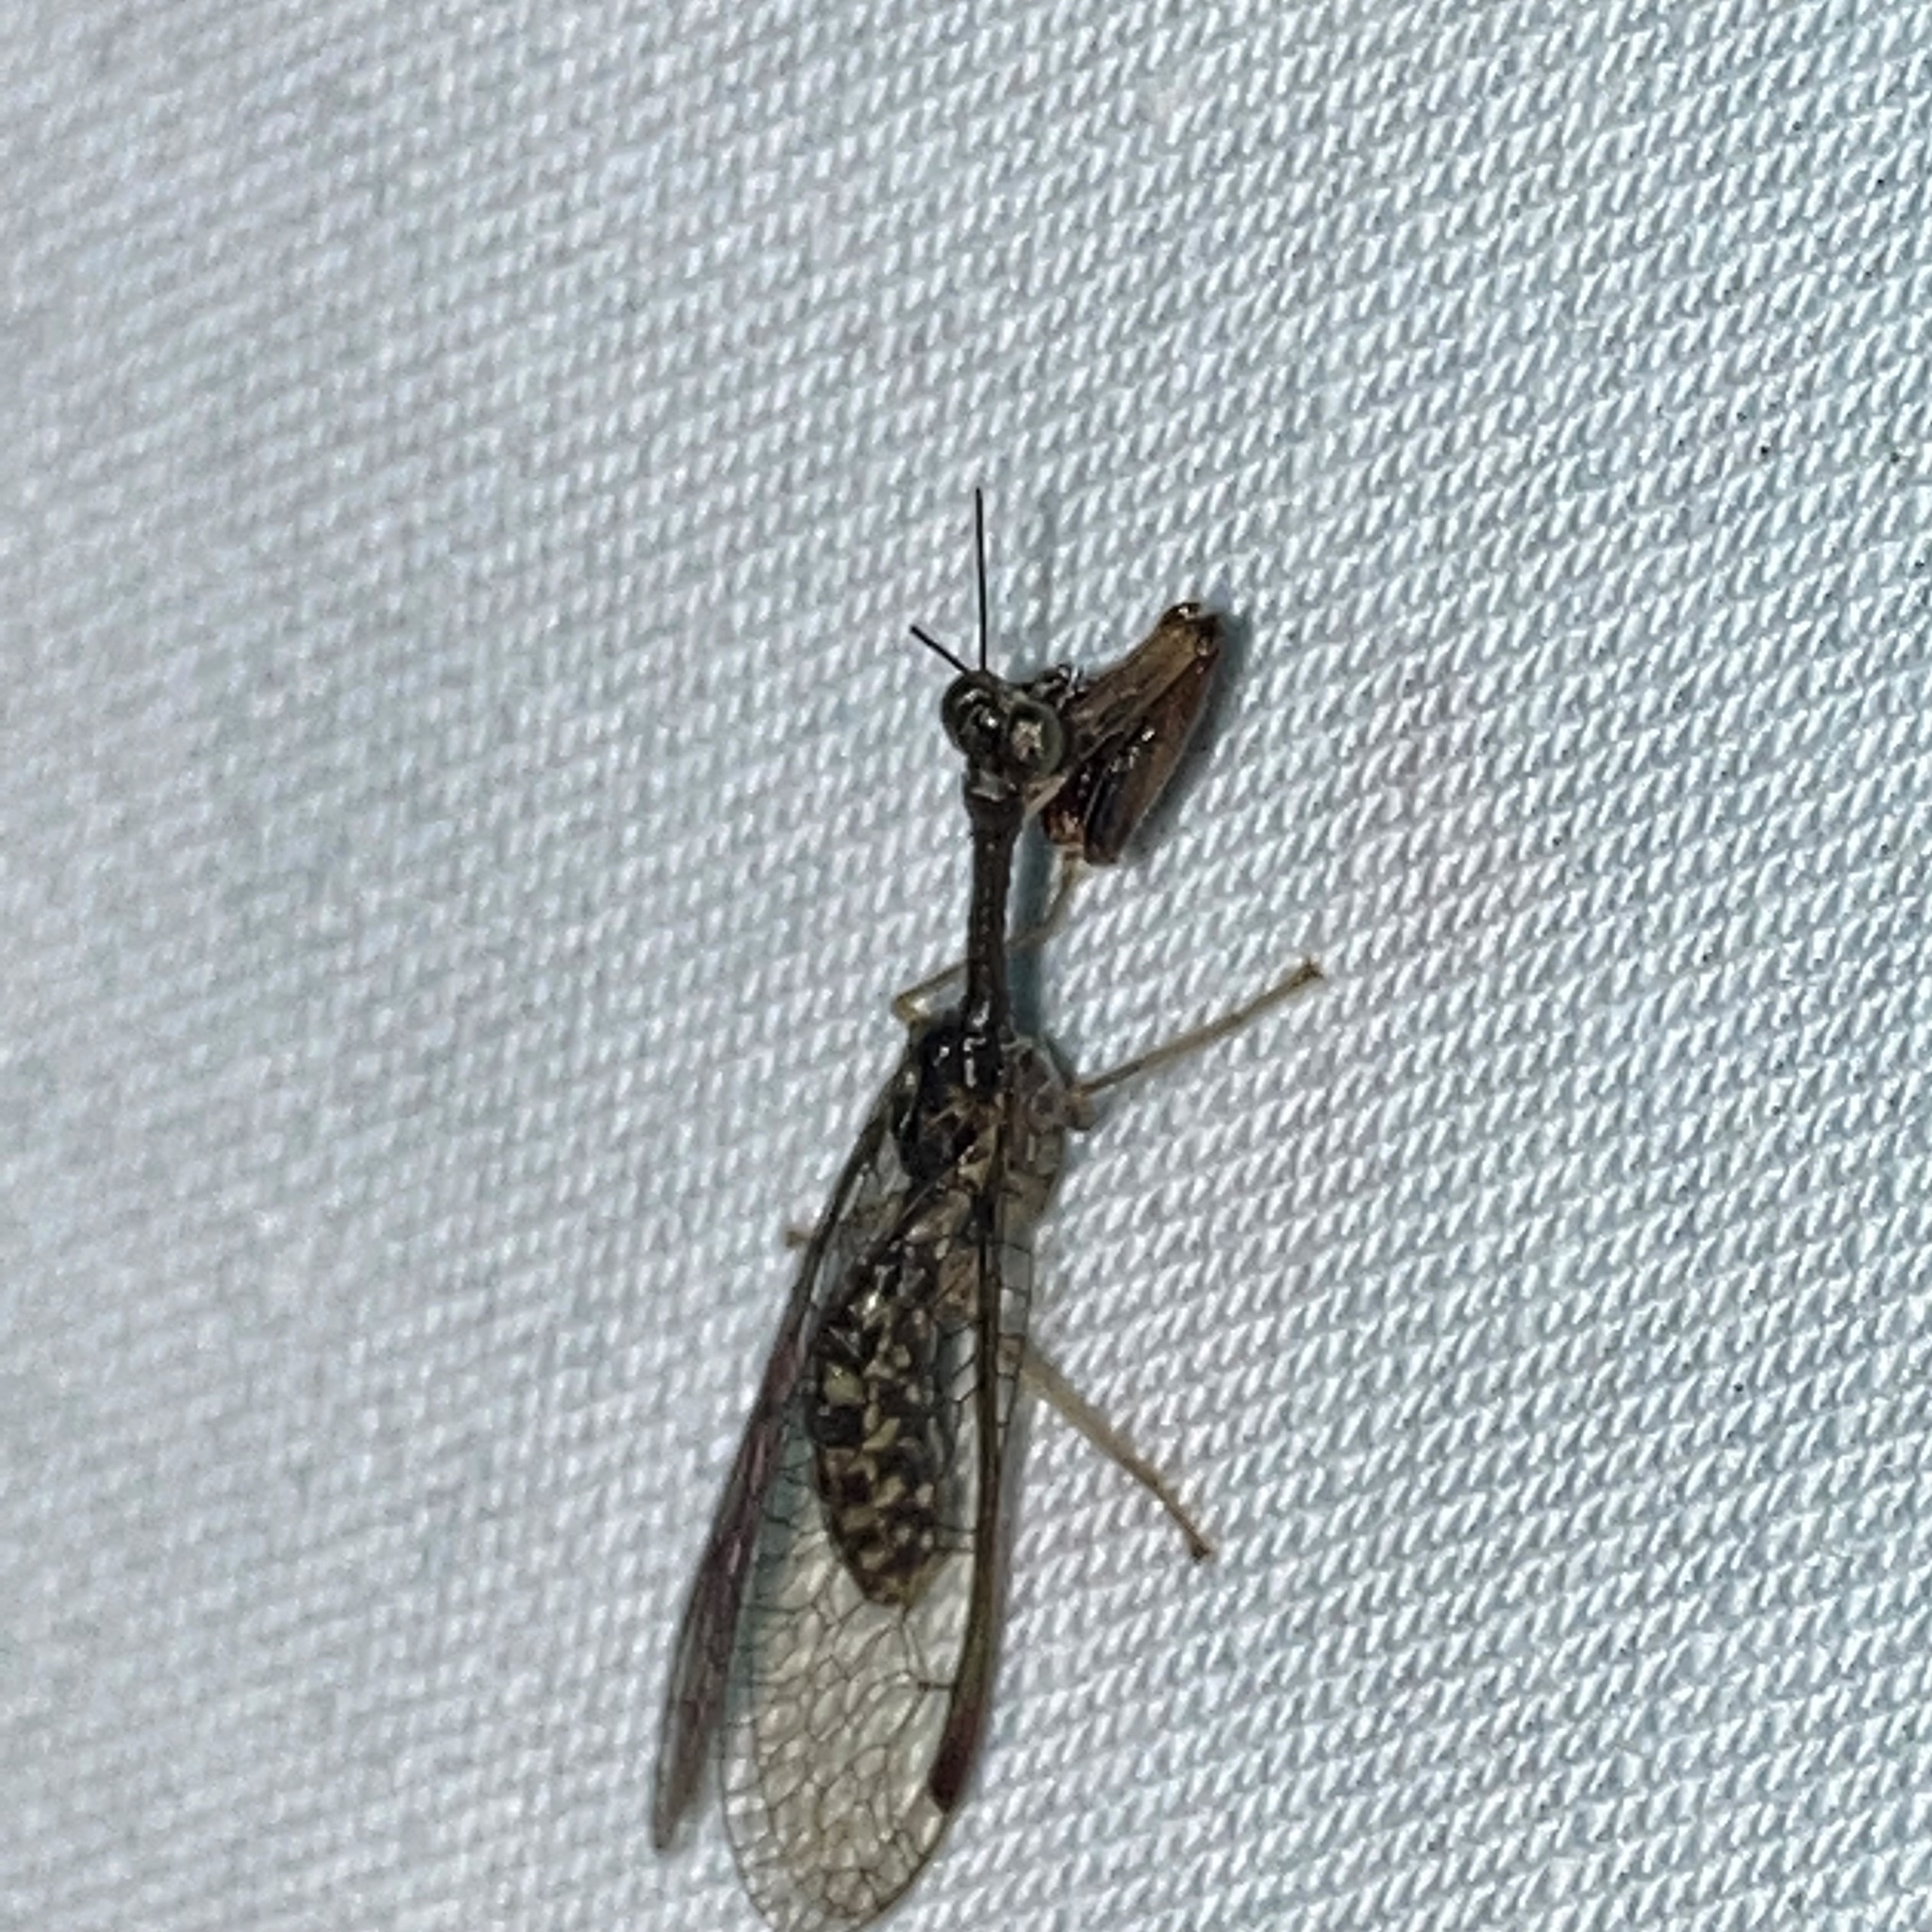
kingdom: Animalia
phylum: Arthropoda
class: Insecta
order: Neuroptera
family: Mantispidae
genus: Dicromantispa
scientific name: Dicromantispa sayi
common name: Say's mantidfly
